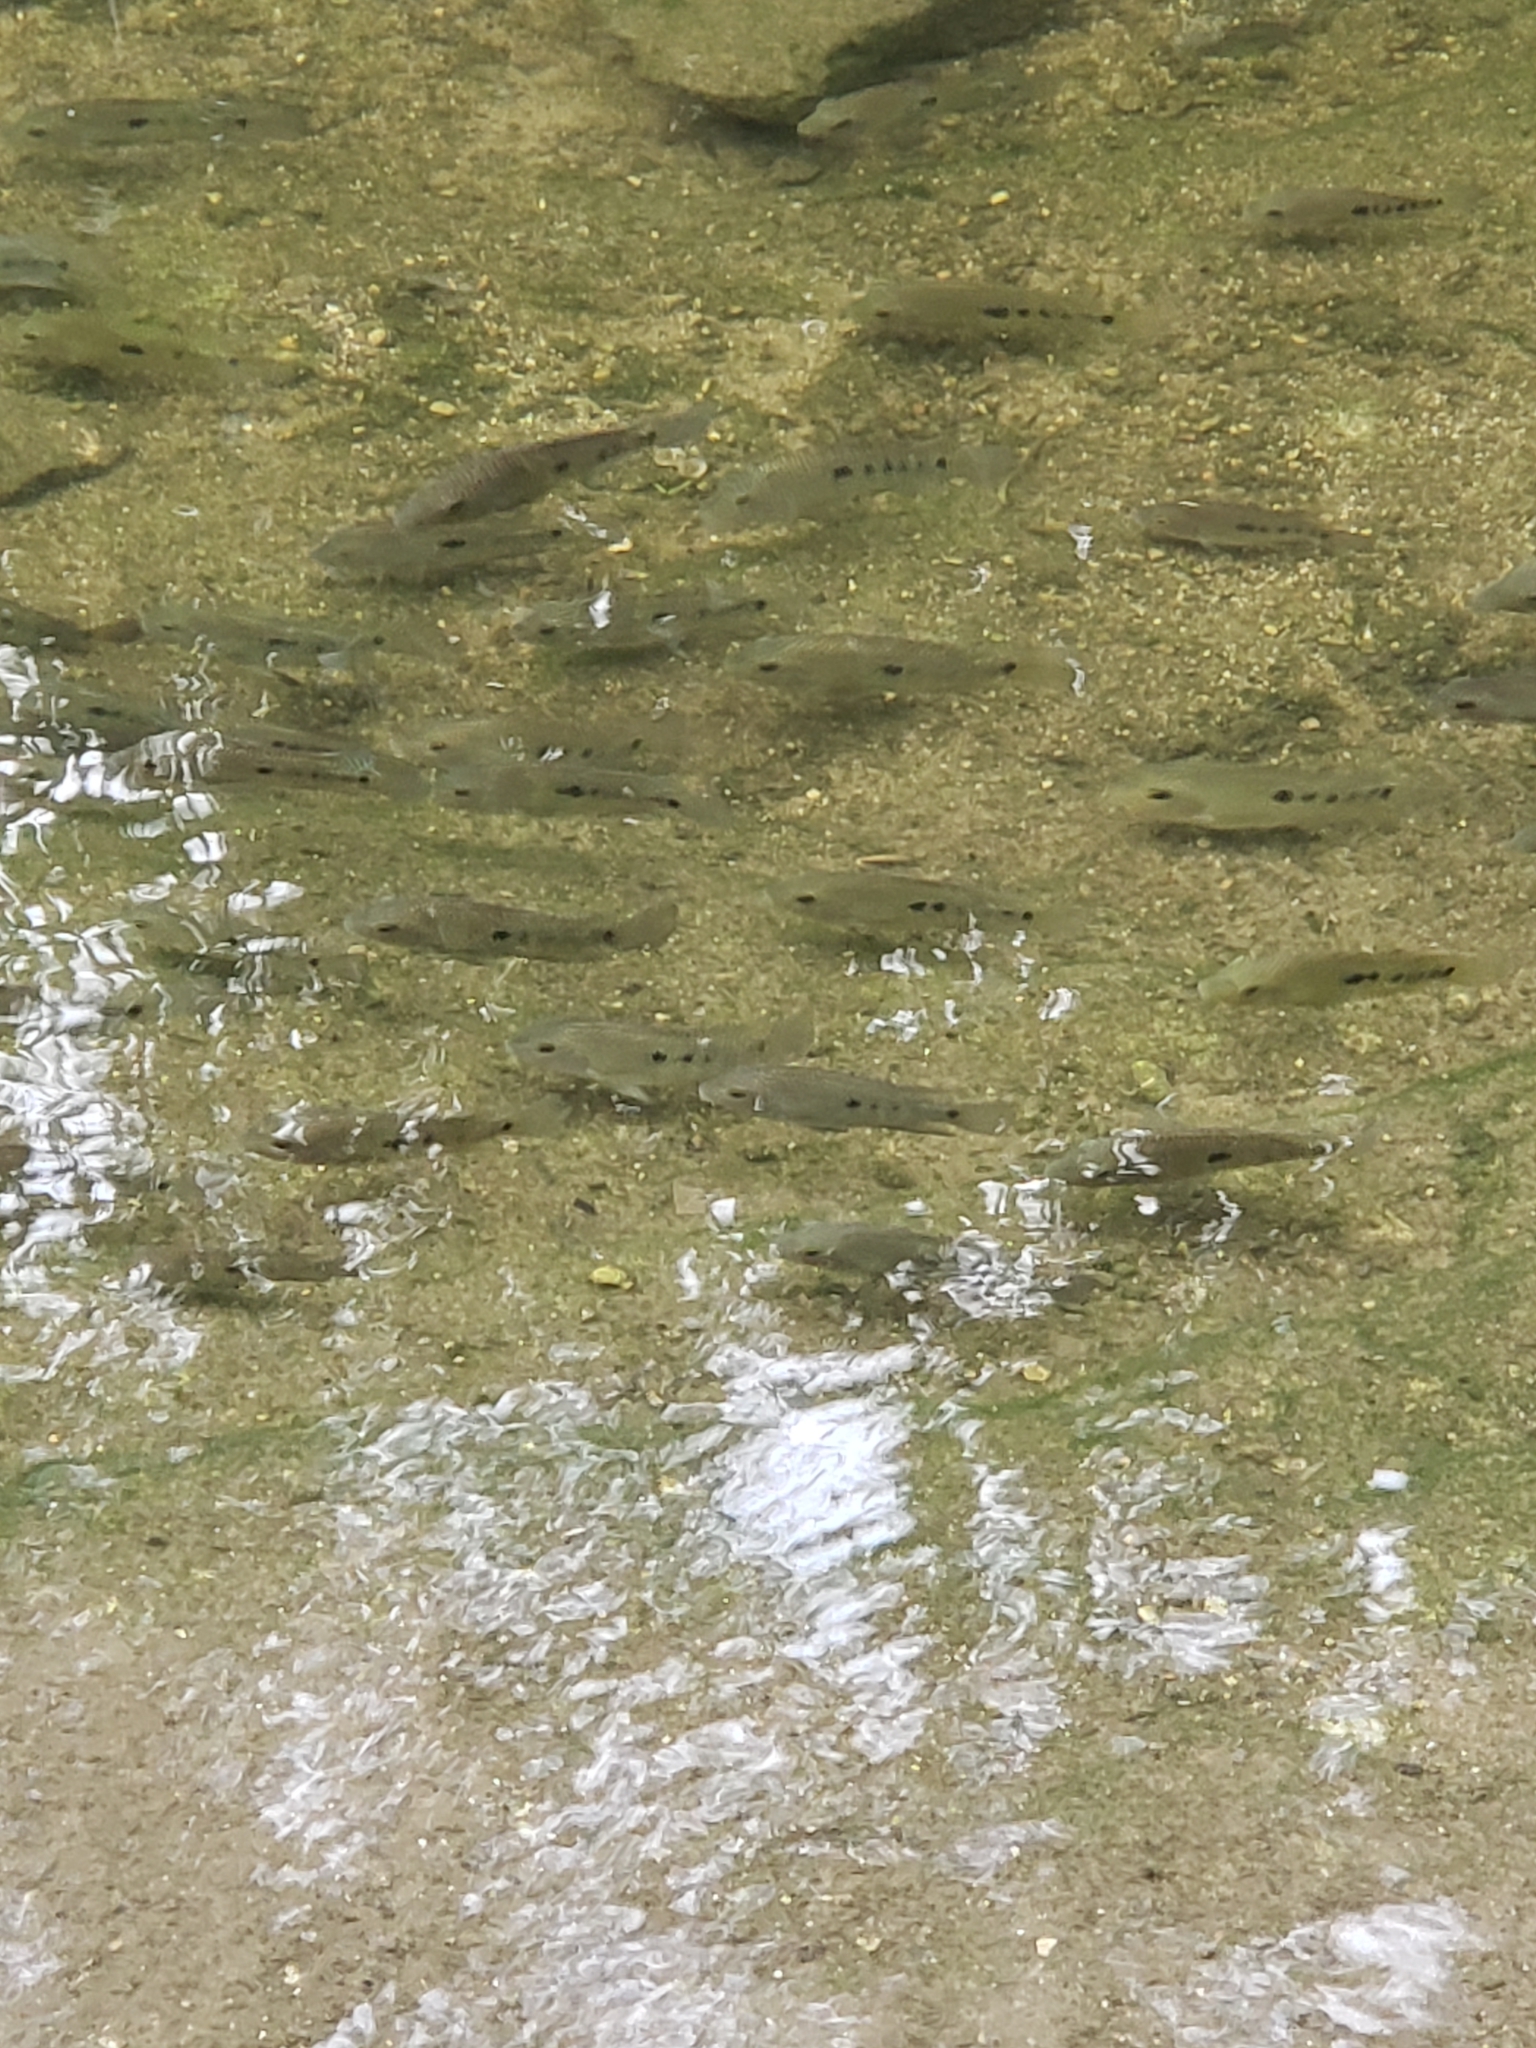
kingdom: Animalia
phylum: Chordata
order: Perciformes
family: Cichlidae
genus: Herichthys
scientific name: Herichthys cyanoguttatus
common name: Rio grande cichlid
